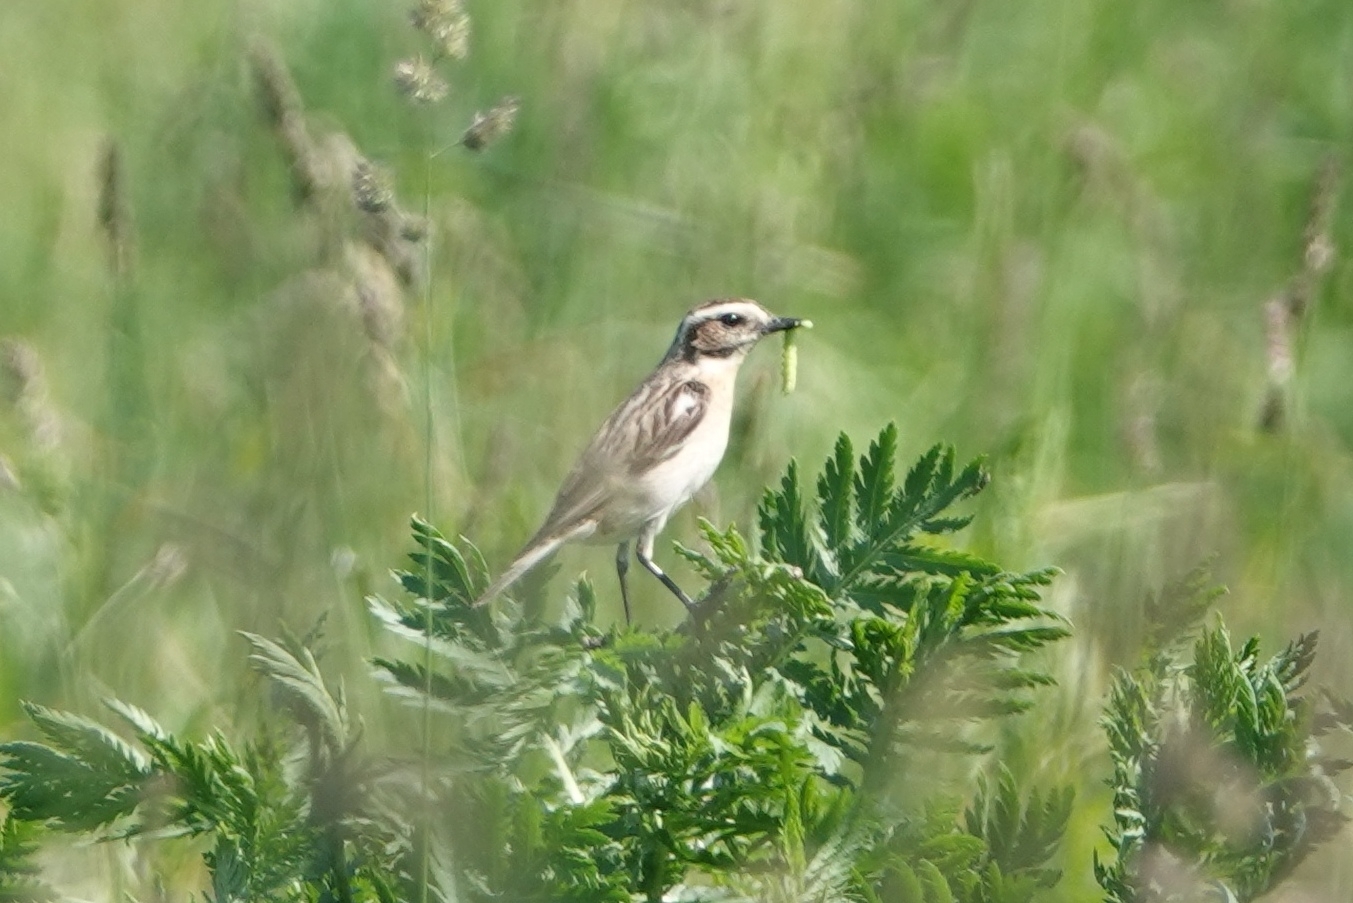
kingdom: Animalia
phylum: Chordata
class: Aves
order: Passeriformes
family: Muscicapidae
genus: Saxicola
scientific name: Saxicola rubetra
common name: Whinchat
